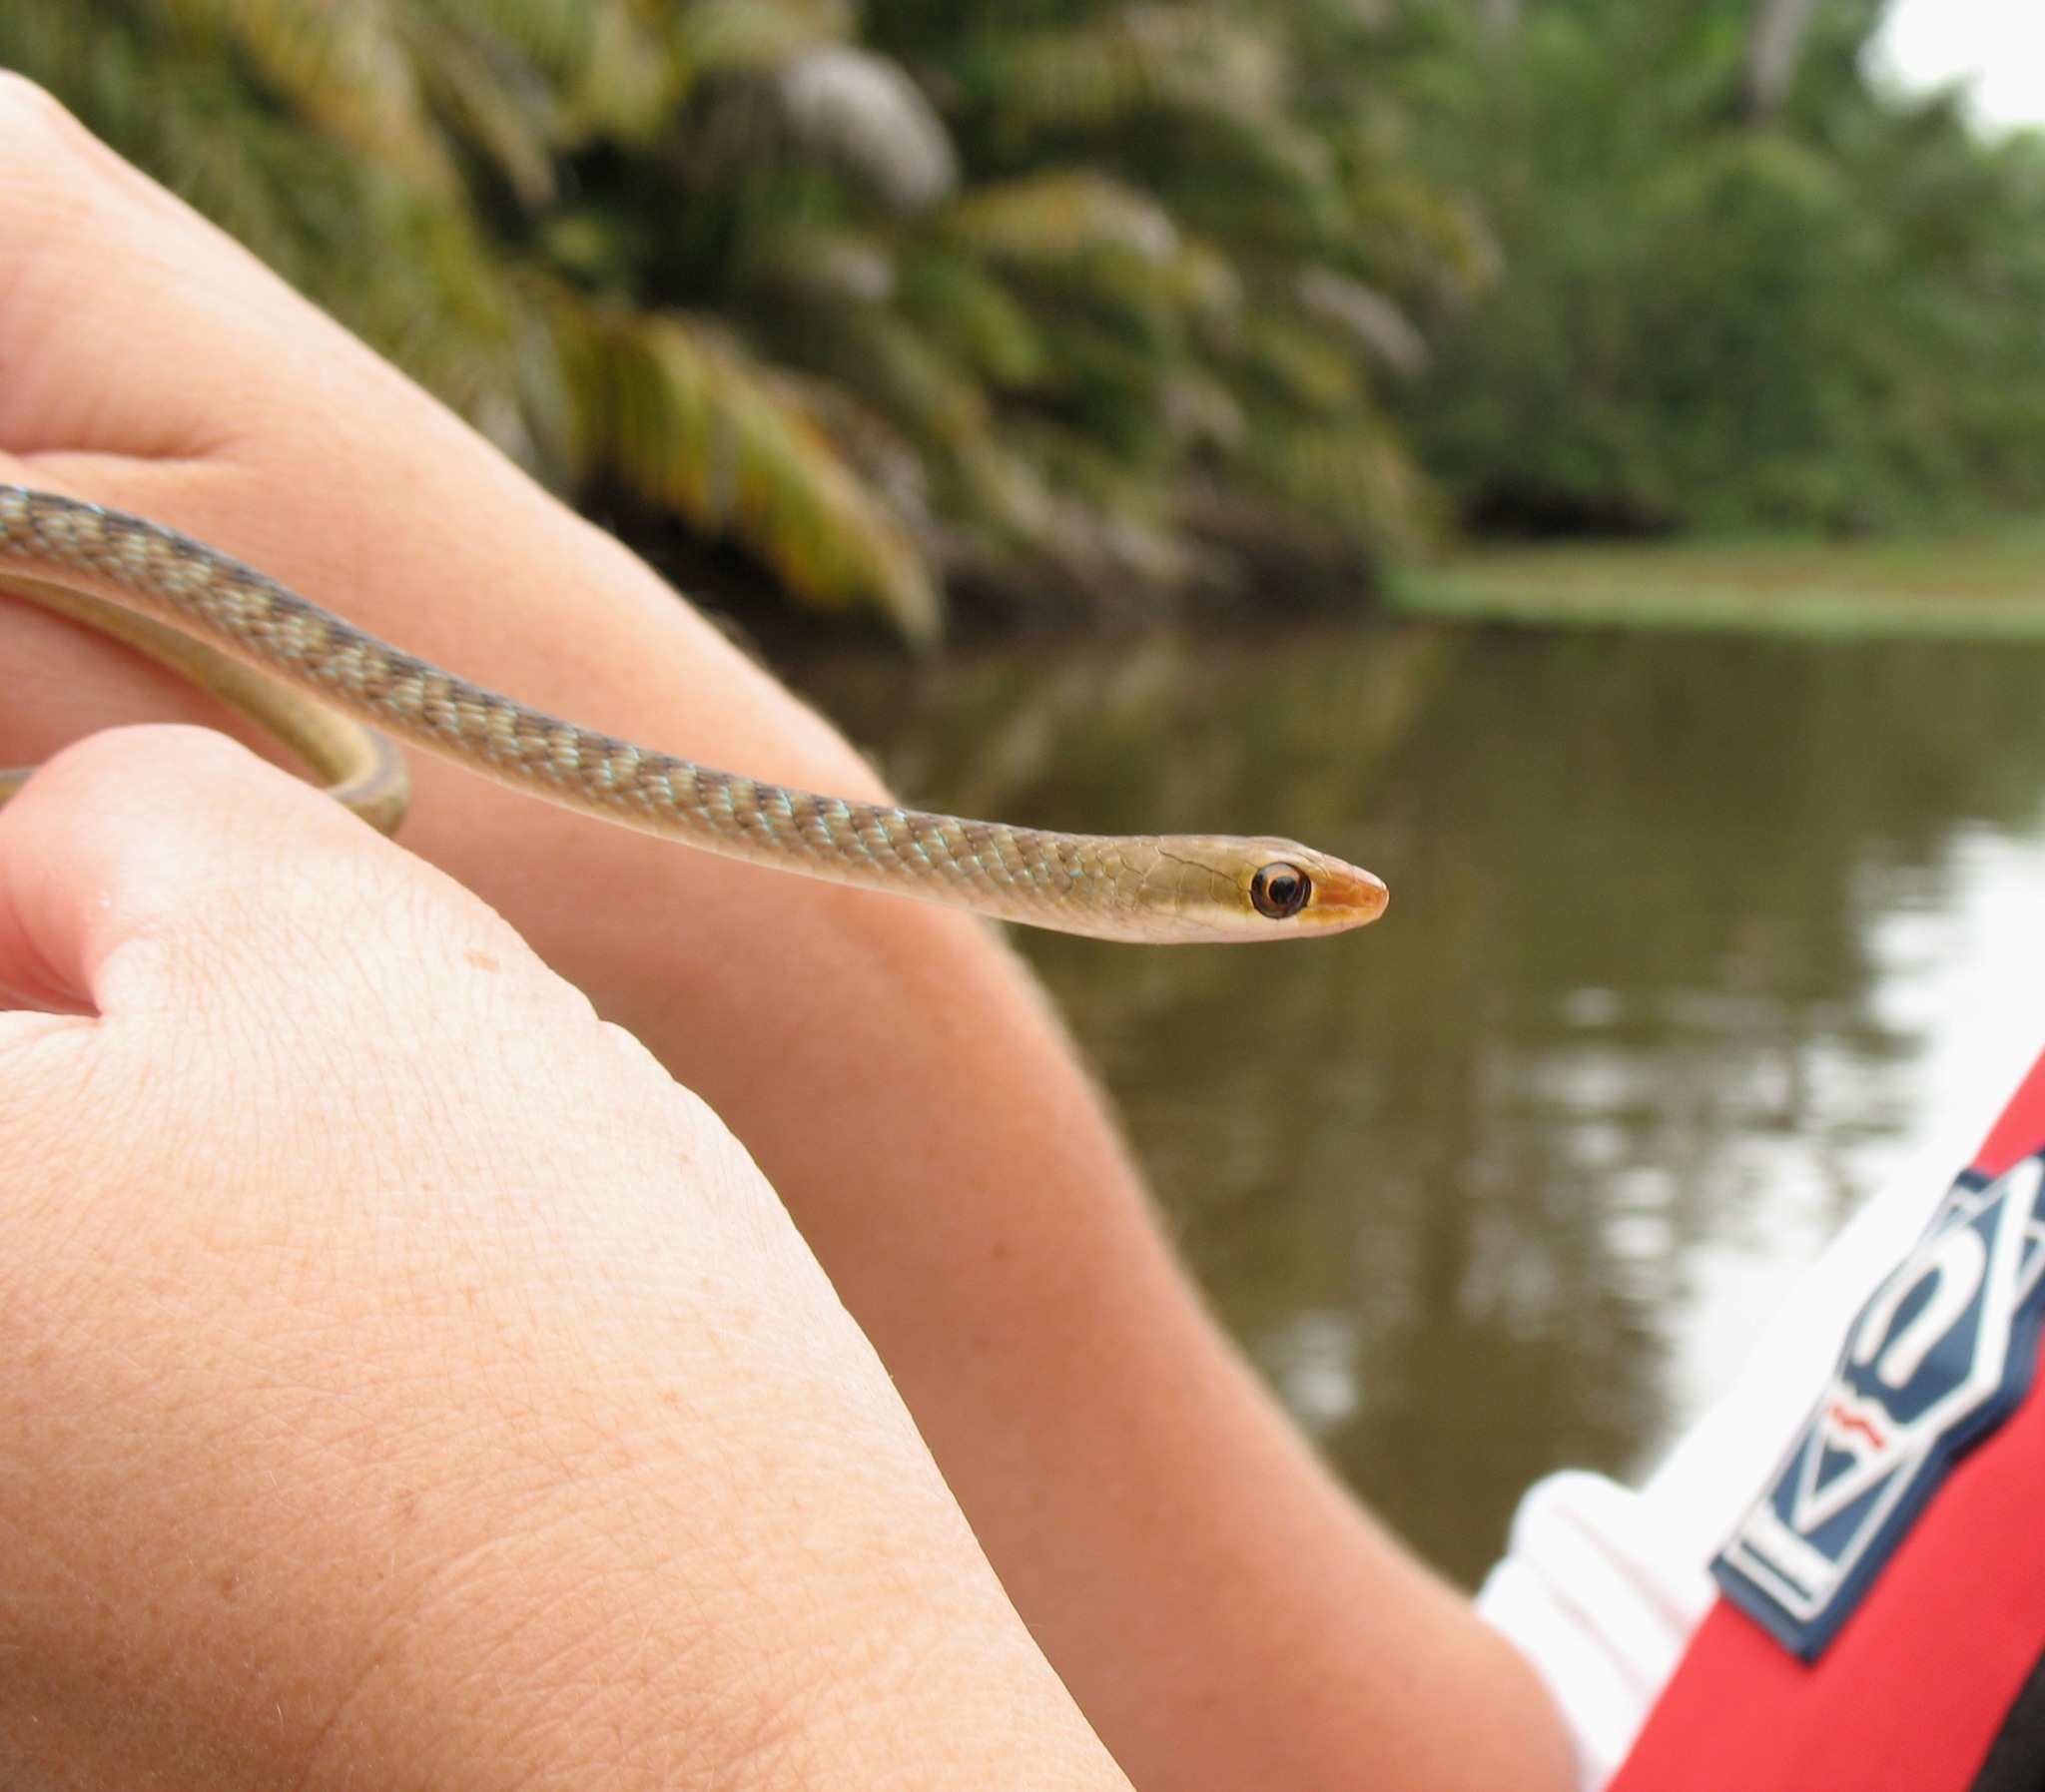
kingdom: Animalia
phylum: Chordata
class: Squamata
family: Colubridae
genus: Philothamnus
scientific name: Philothamnus dorsalis
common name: Striped green snake
